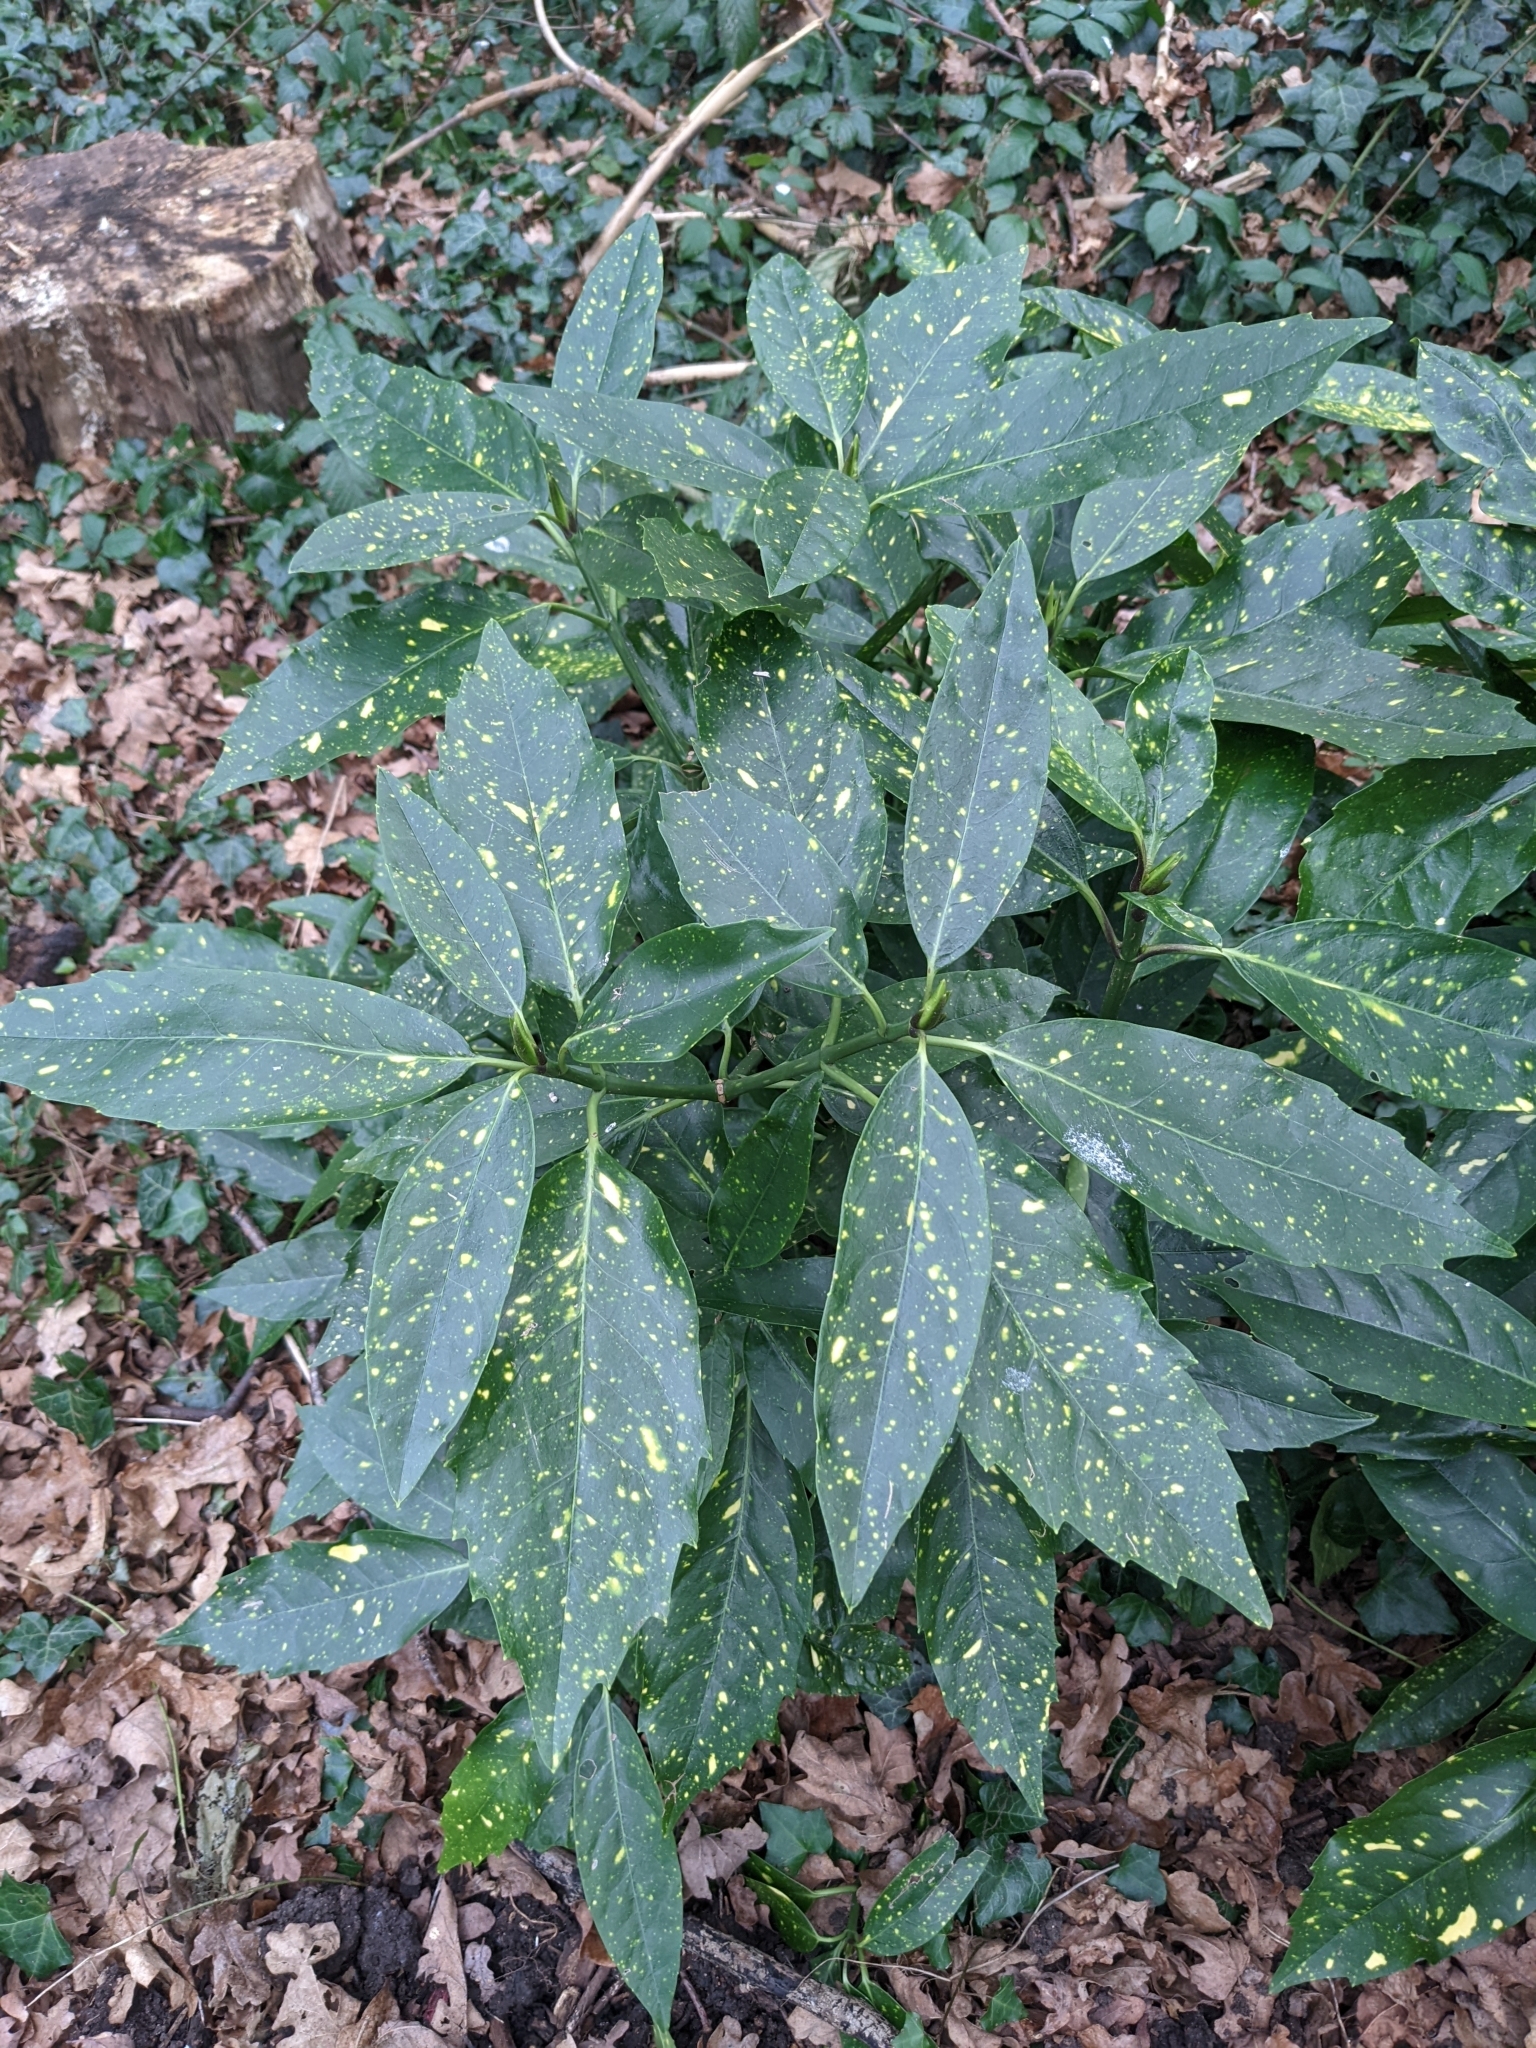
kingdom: Plantae
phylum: Tracheophyta
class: Magnoliopsida
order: Garryales
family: Garryaceae
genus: Aucuba
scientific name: Aucuba japonica
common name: Spotted-laurel
